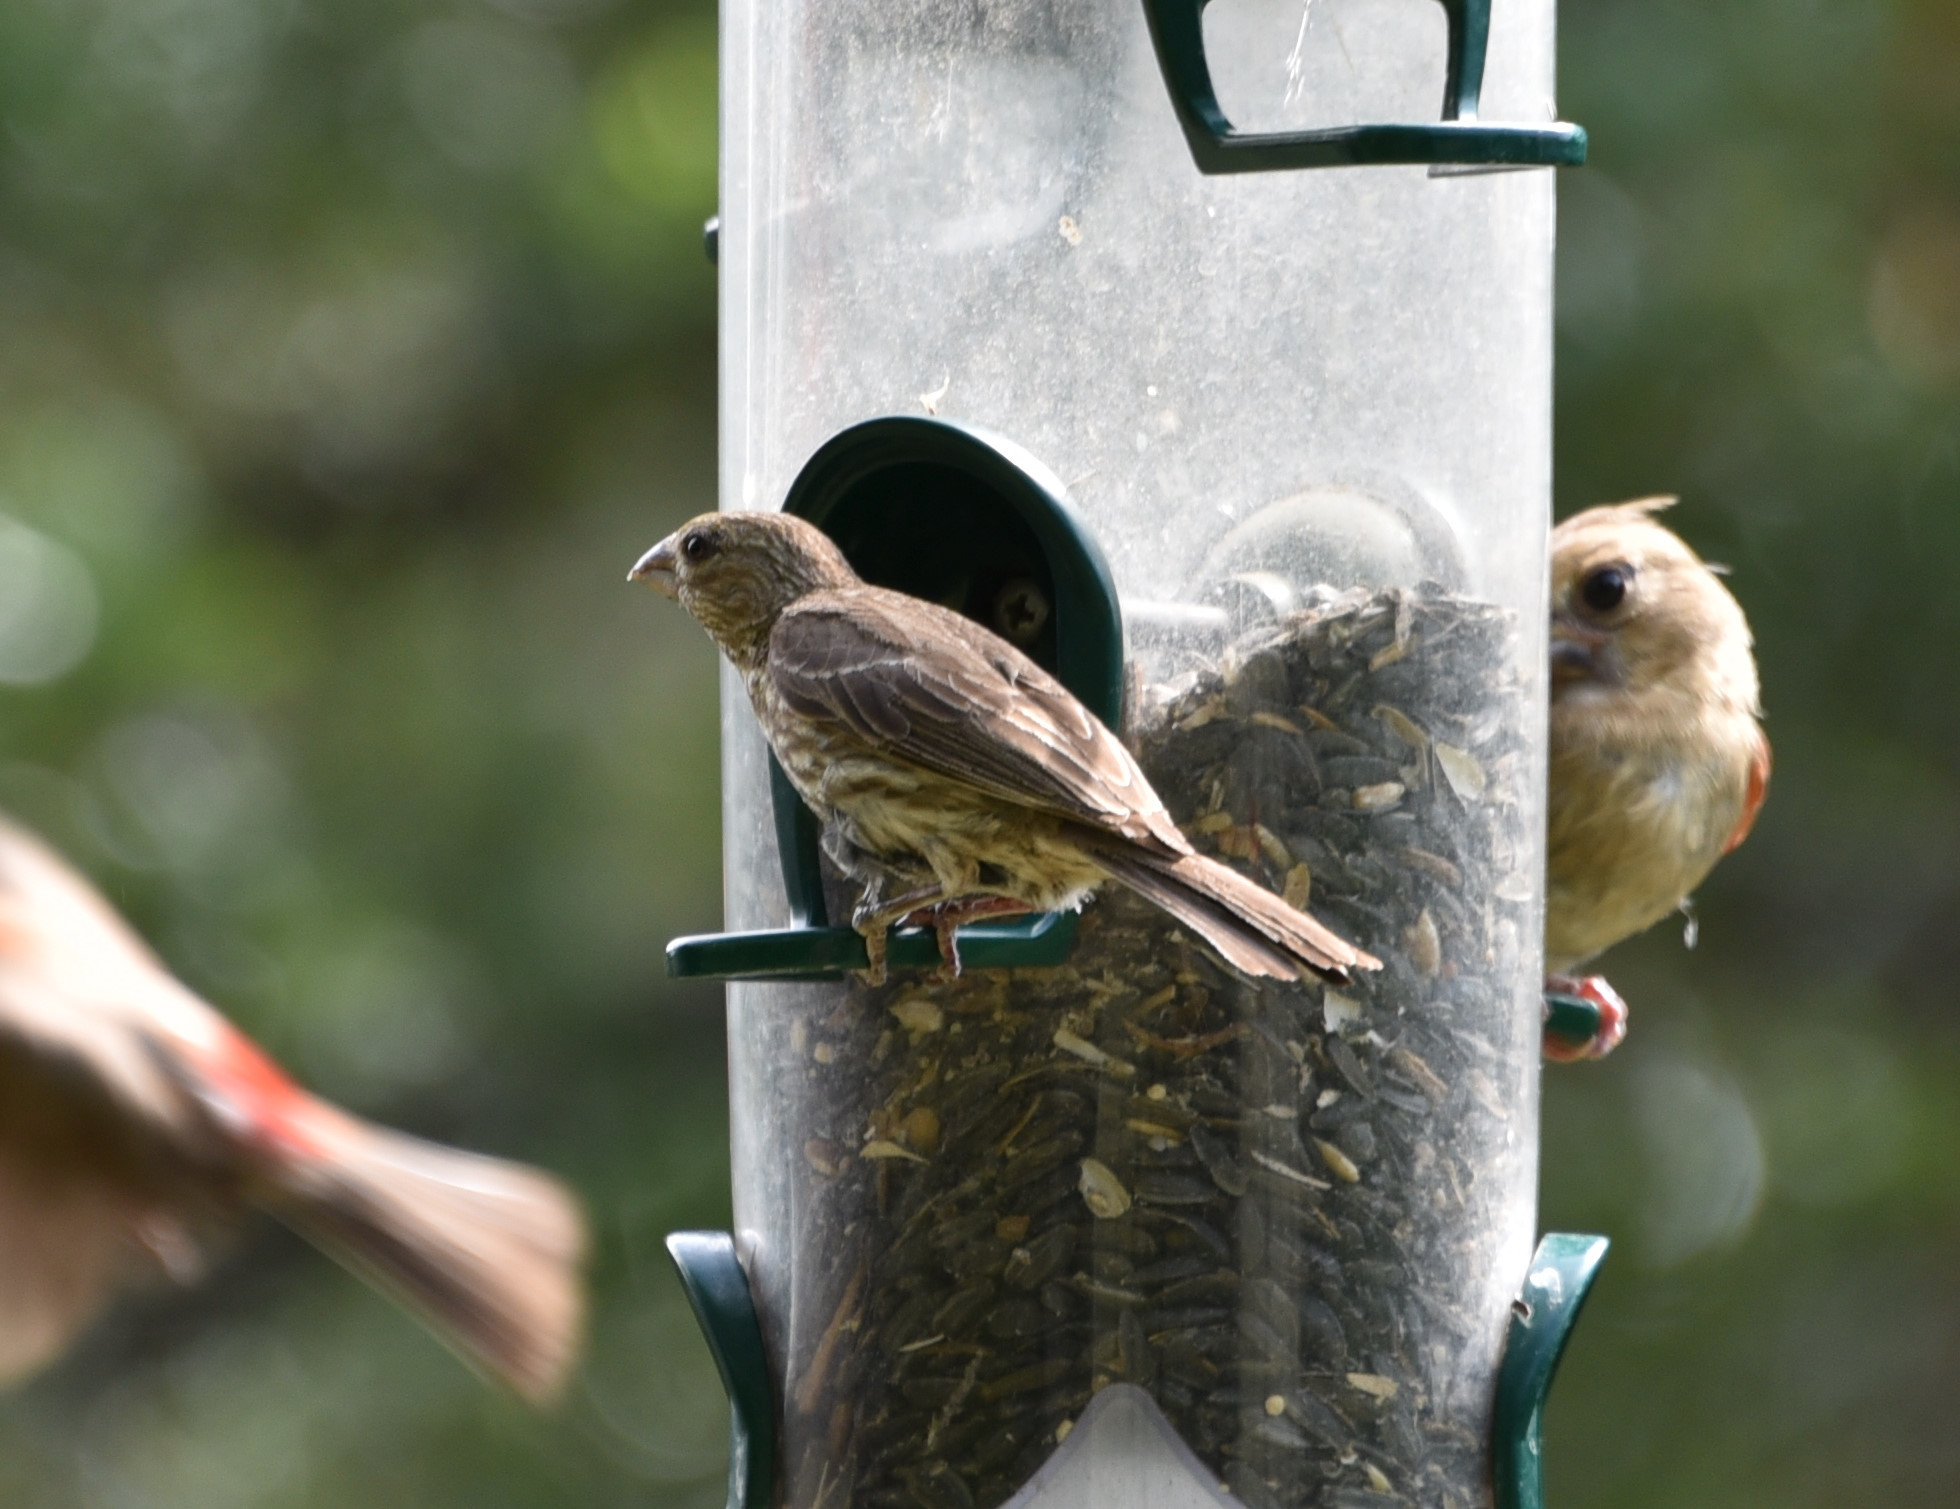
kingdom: Animalia
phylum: Chordata
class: Aves
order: Passeriformes
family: Fringillidae
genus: Haemorhous
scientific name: Haemorhous mexicanus
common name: House finch
